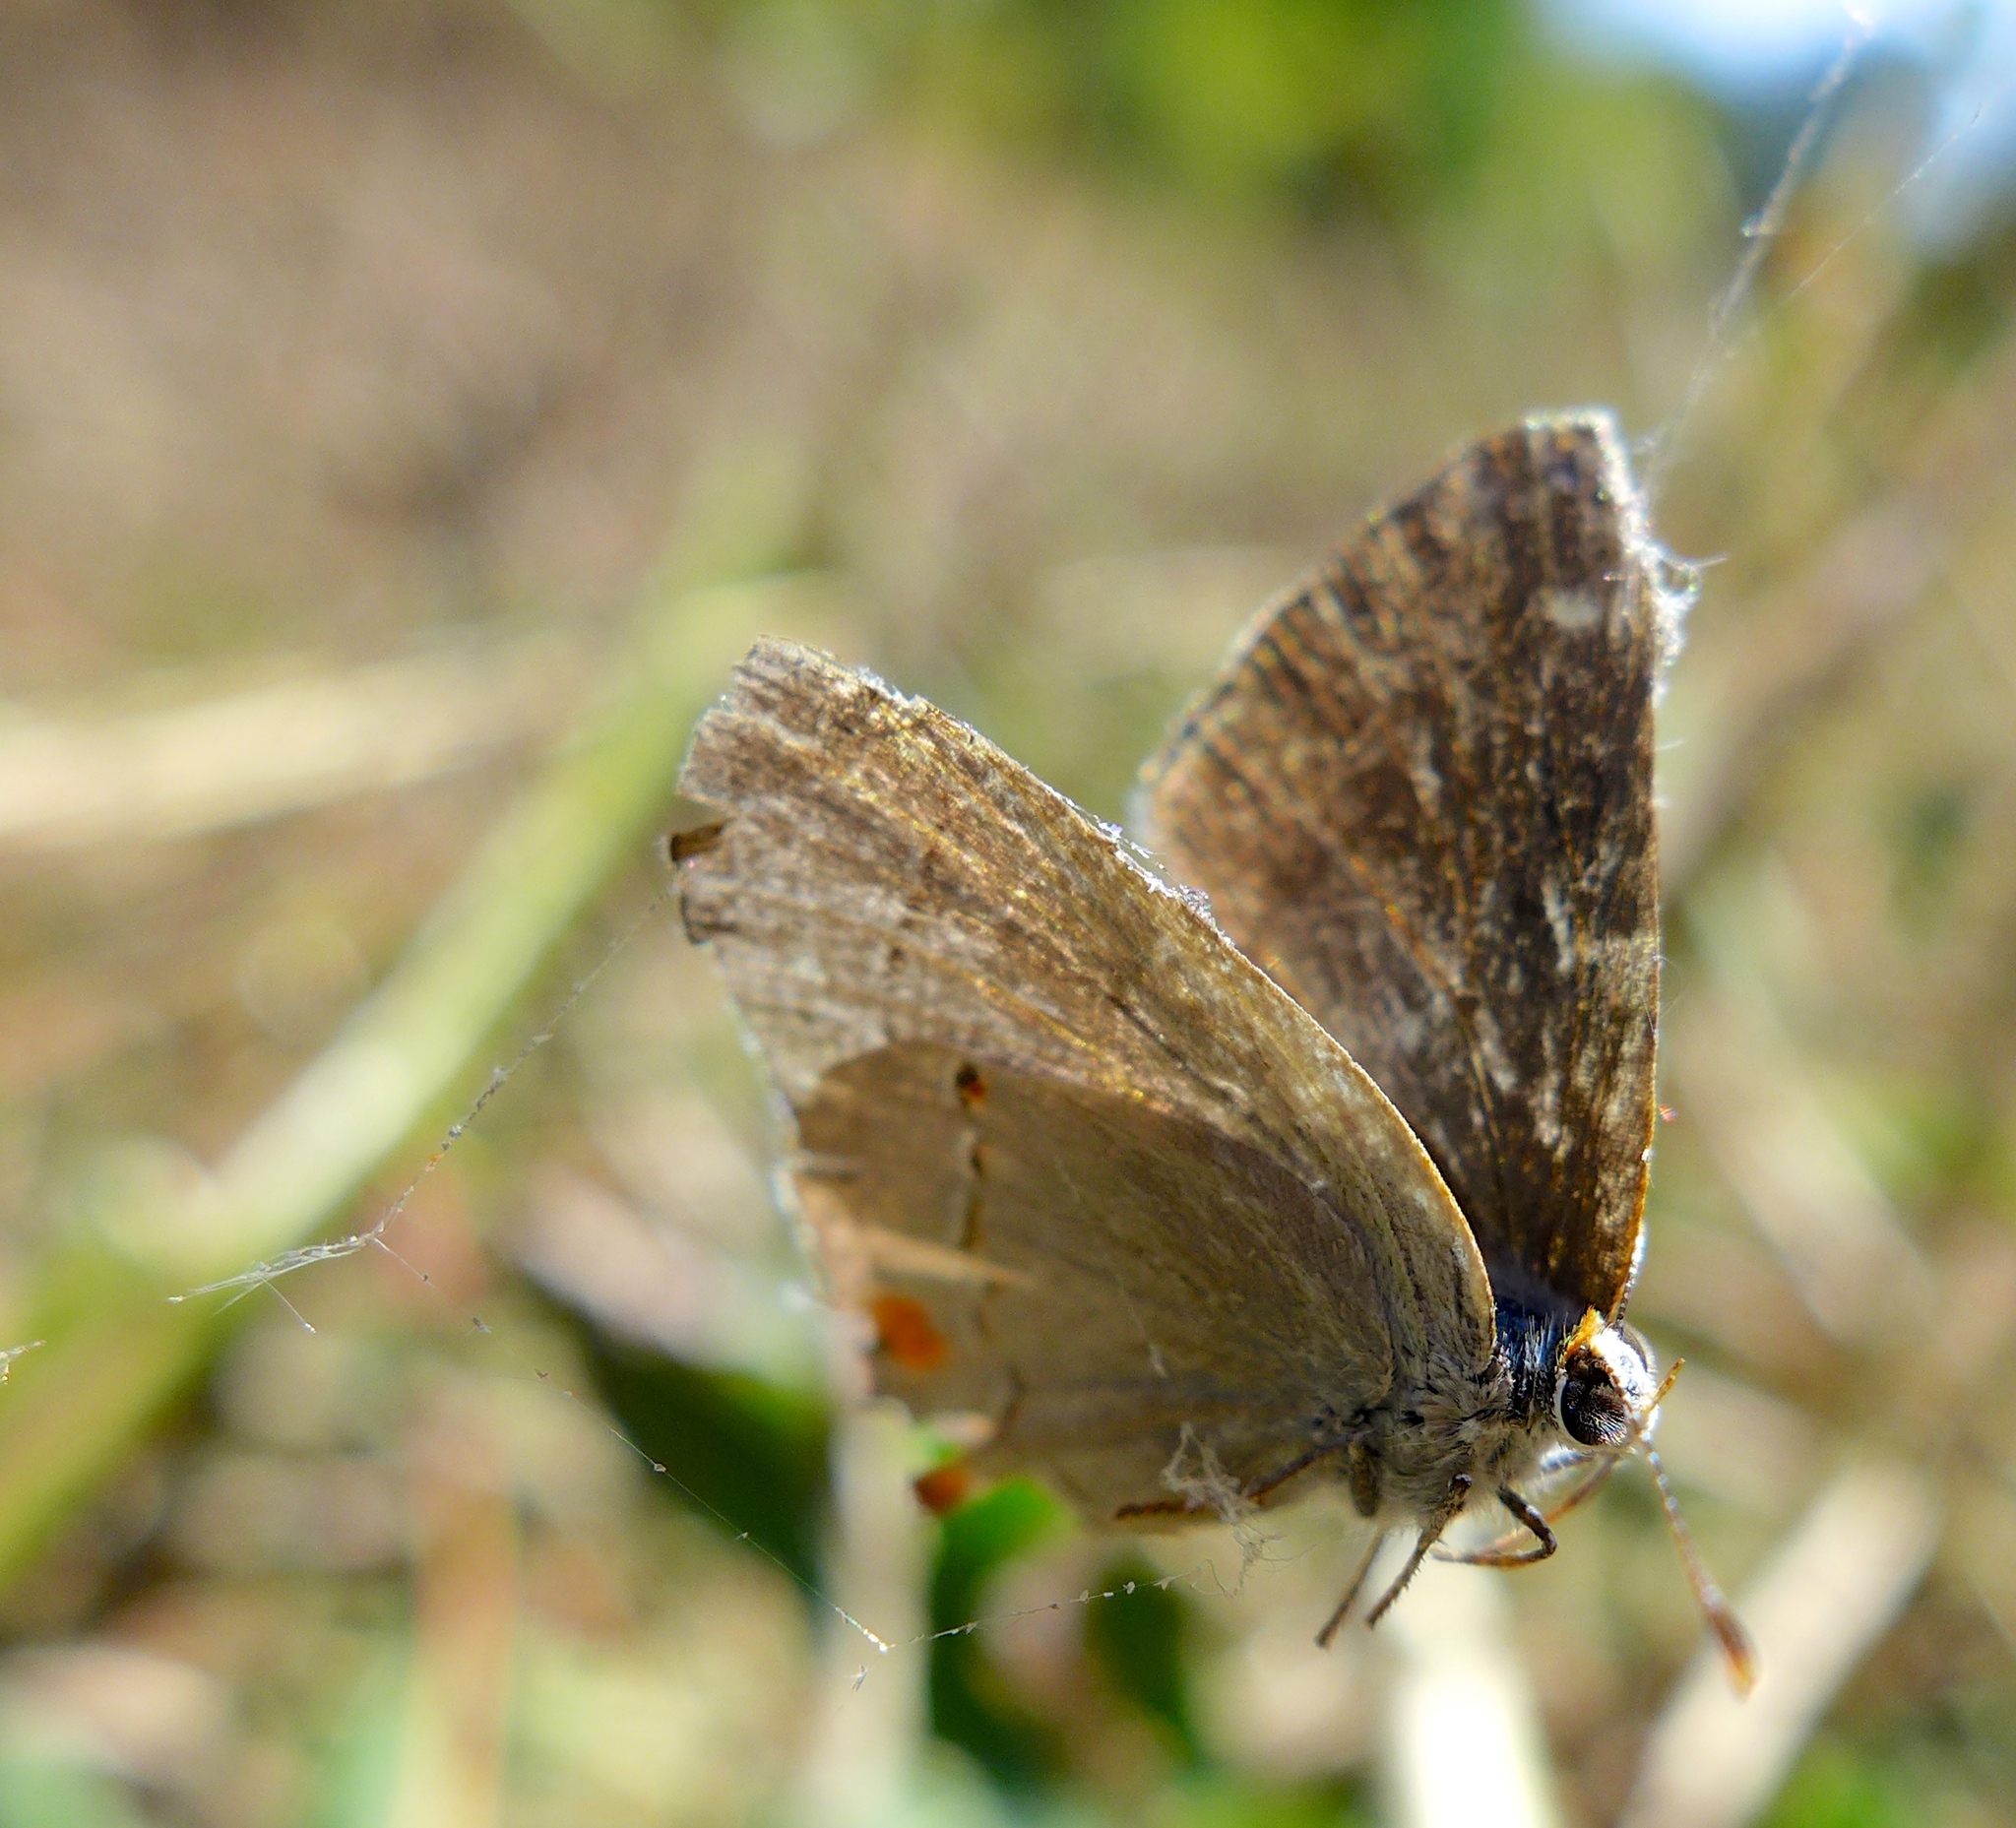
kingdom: Animalia
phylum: Arthropoda
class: Insecta
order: Lepidoptera
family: Lycaenidae
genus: Strymon
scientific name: Strymon melinus
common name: Gray hairstreak
